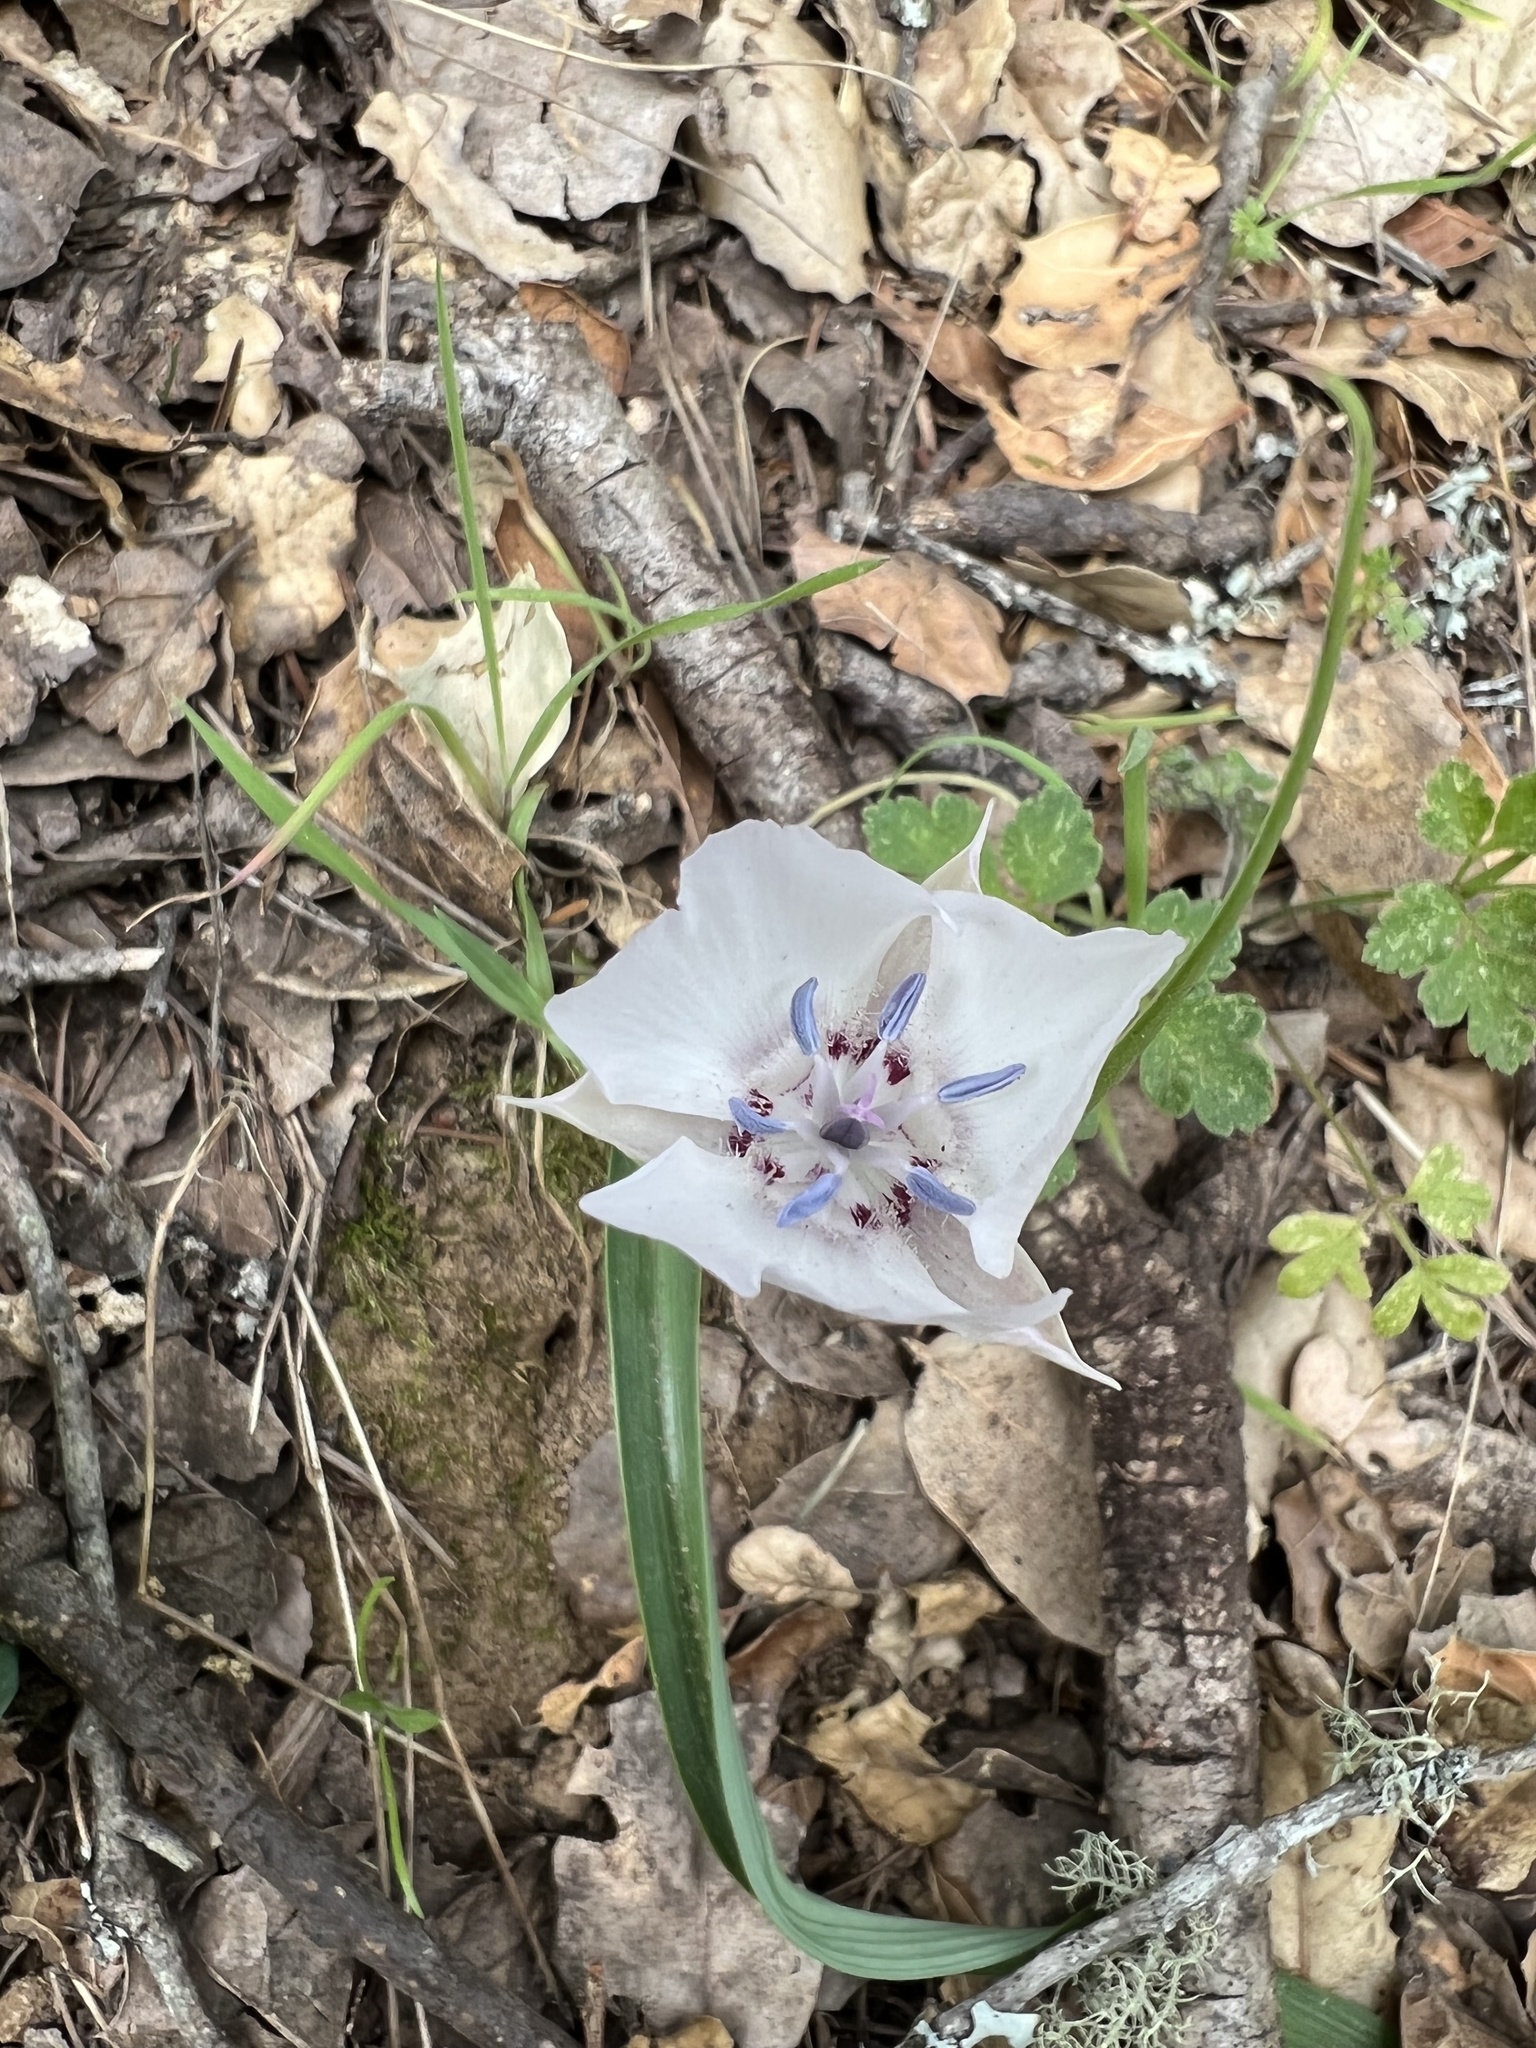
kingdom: Plantae
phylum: Tracheophyta
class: Liliopsida
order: Liliales
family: Liliaceae
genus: Calochortus
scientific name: Calochortus umbellatus
